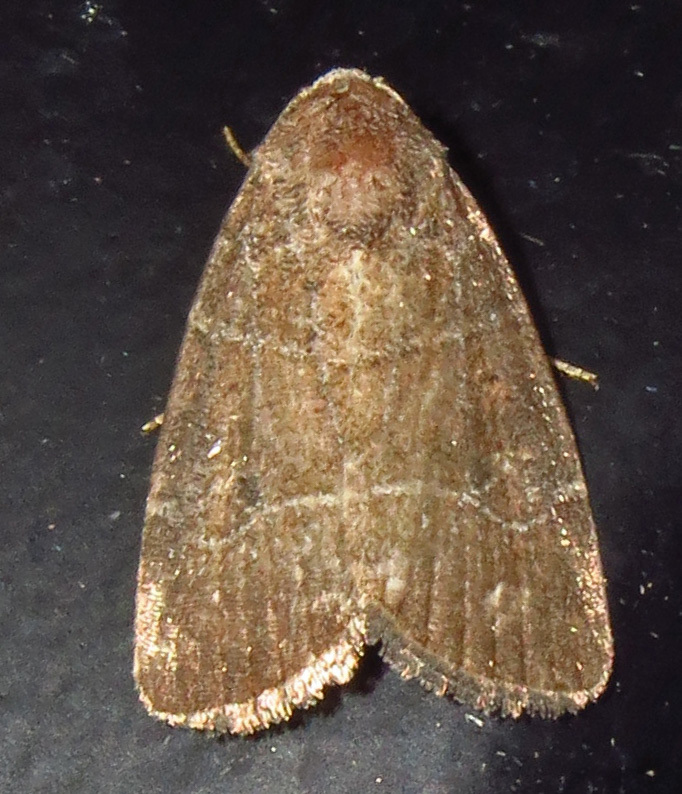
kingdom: Animalia
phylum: Arthropoda
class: Insecta
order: Lepidoptera
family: Noctuidae
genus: Elaphria
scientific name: Elaphria grata
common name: Grateful midget moth
